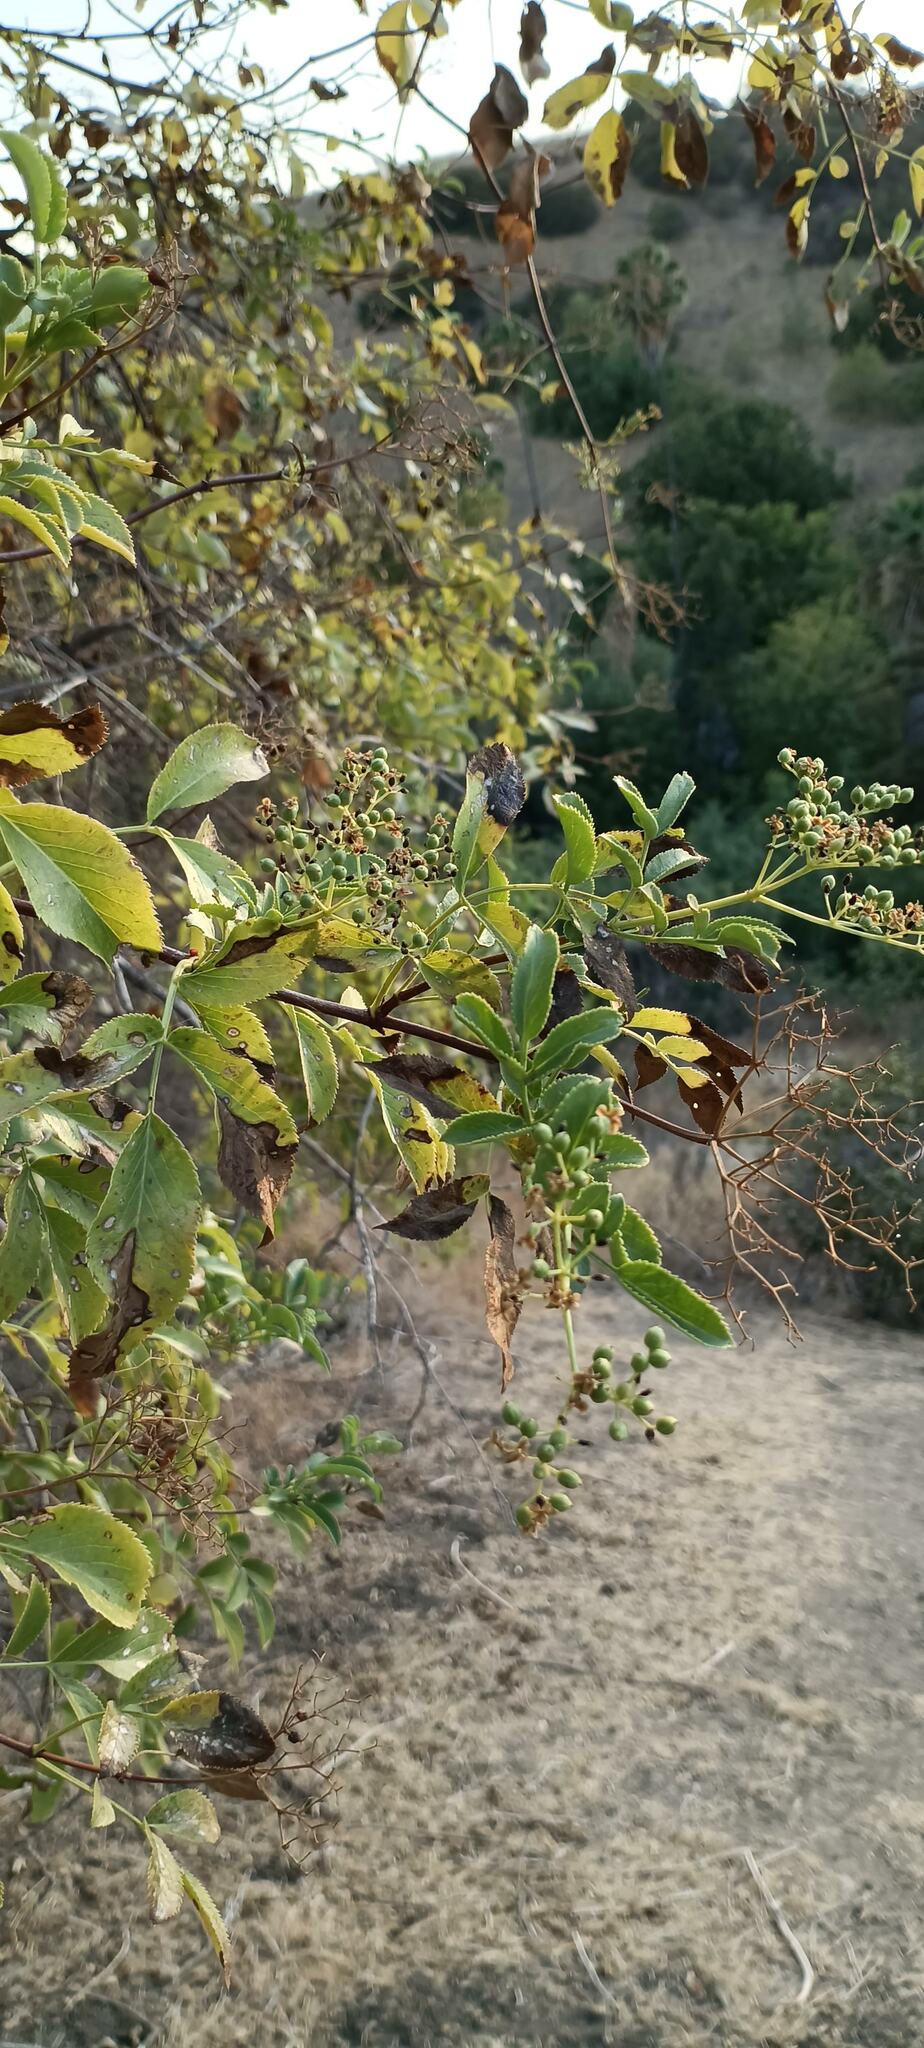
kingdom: Plantae
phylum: Tracheophyta
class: Magnoliopsida
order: Dipsacales
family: Viburnaceae
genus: Sambucus
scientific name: Sambucus cerulea
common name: Blue elder
